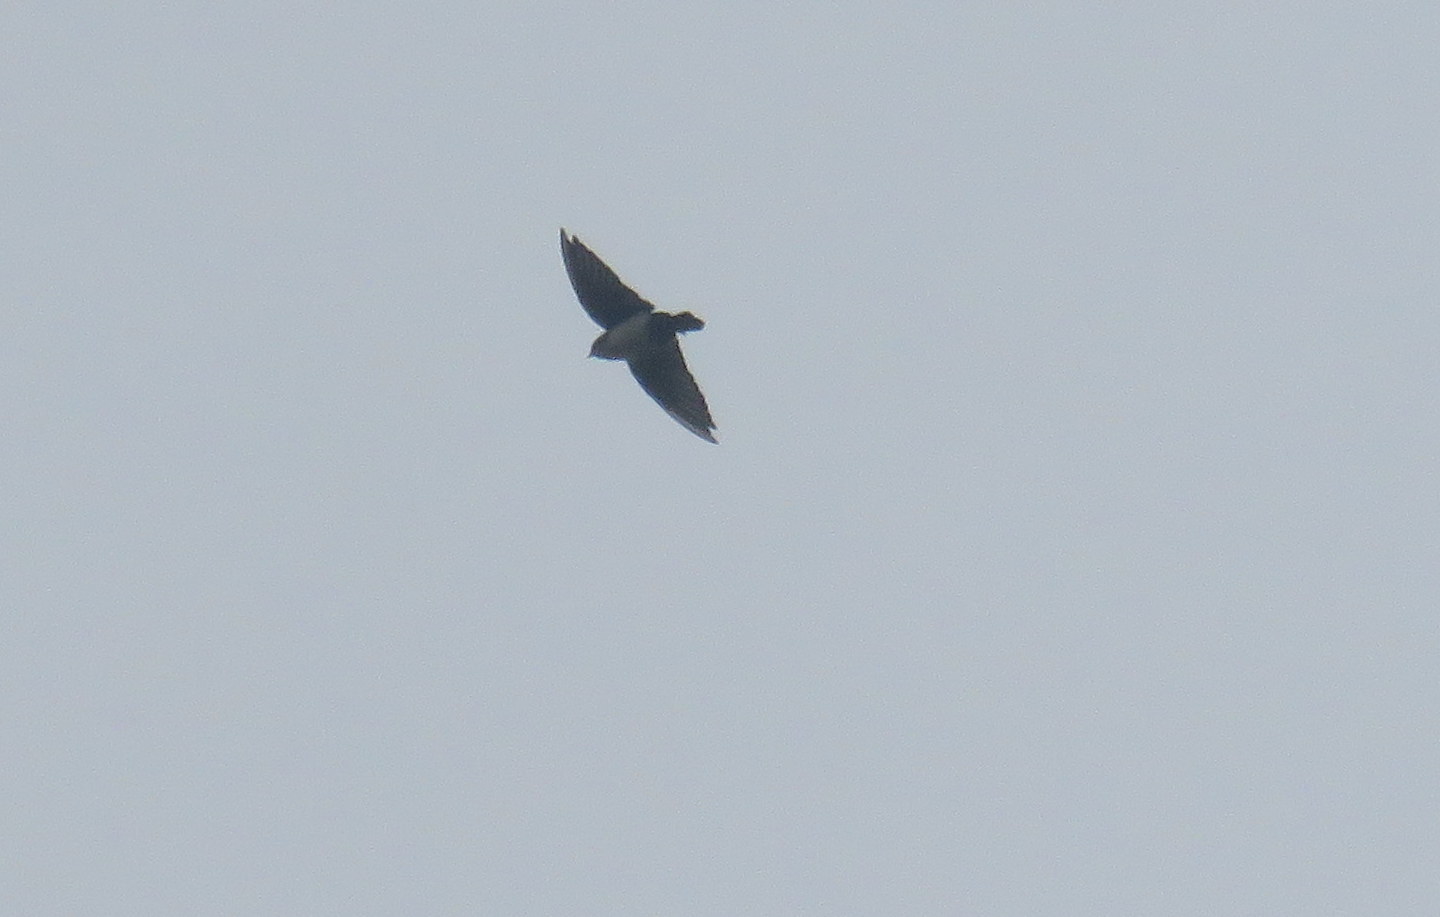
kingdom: Animalia
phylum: Chordata
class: Aves
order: Passeriformes
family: Hirundinidae
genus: Notiochelidon
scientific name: Notiochelidon cyanoleuca
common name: Blue-and-white swallow
